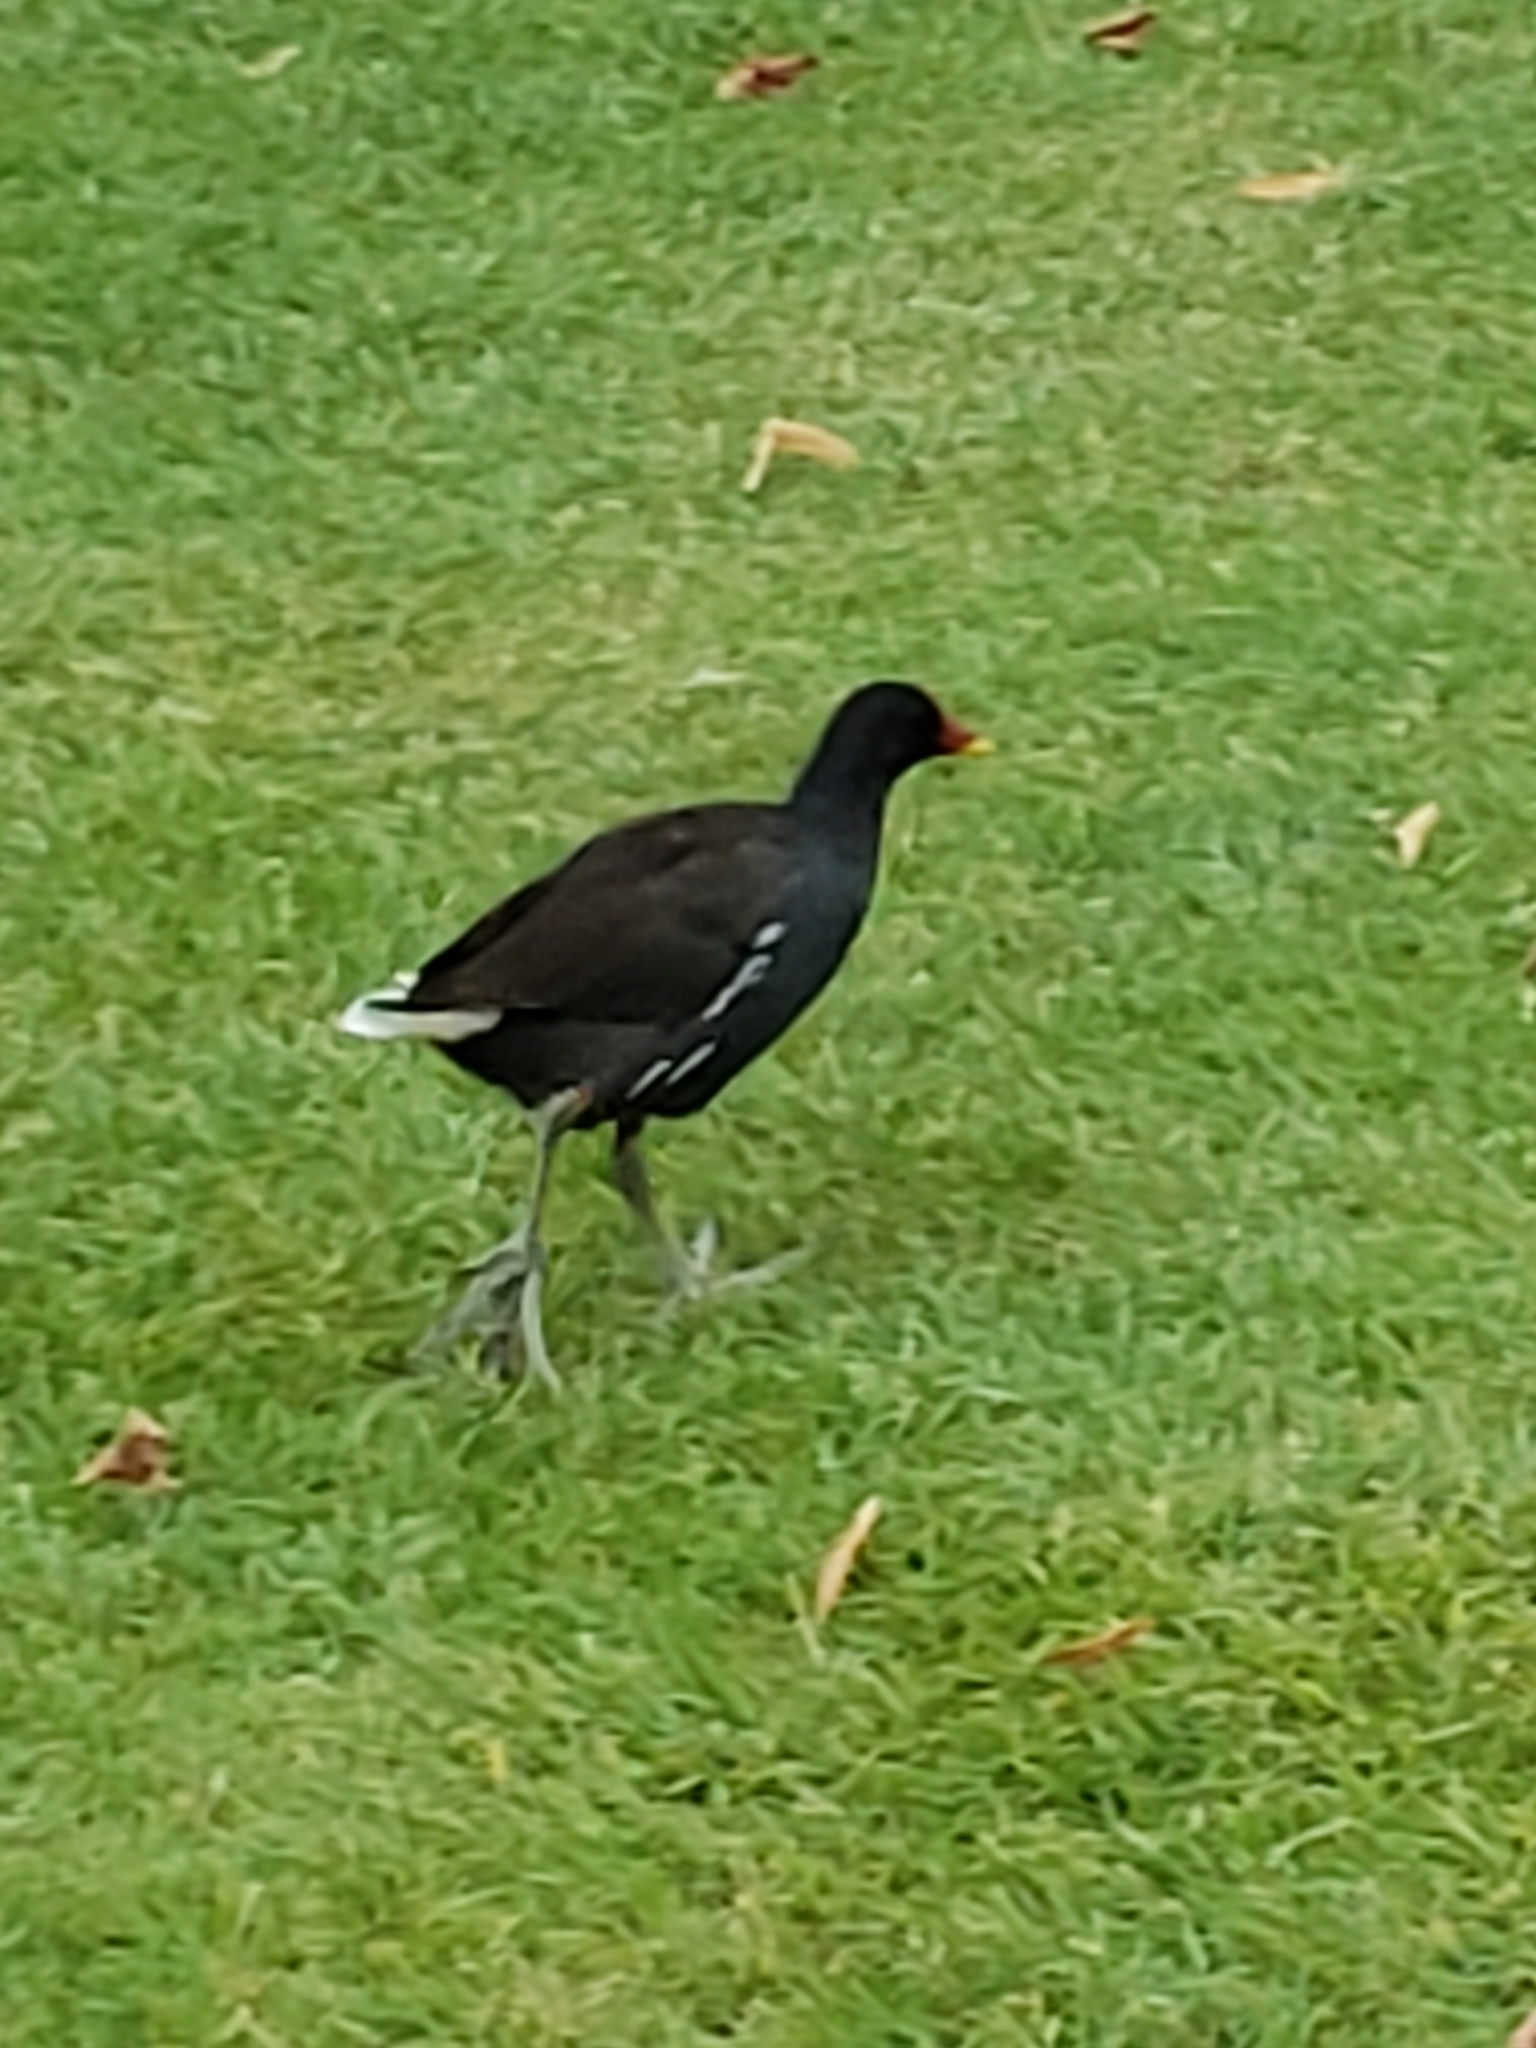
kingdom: Animalia
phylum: Chordata
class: Aves
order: Gruiformes
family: Rallidae
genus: Gallinula
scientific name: Gallinula chloropus
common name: Common moorhen
